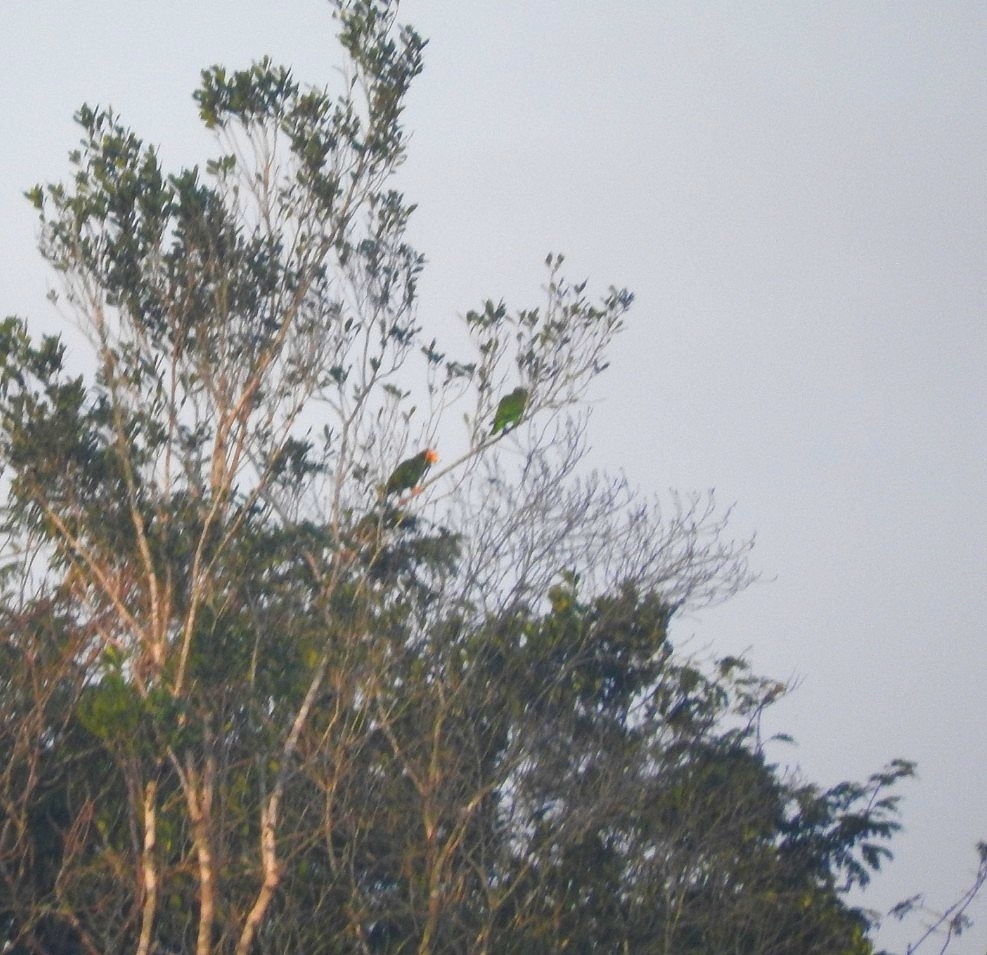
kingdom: Animalia
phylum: Chordata
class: Aves
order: Psittaciformes
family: Psittacidae
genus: Amazona
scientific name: Amazona xantholora
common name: Yucatan amazon
